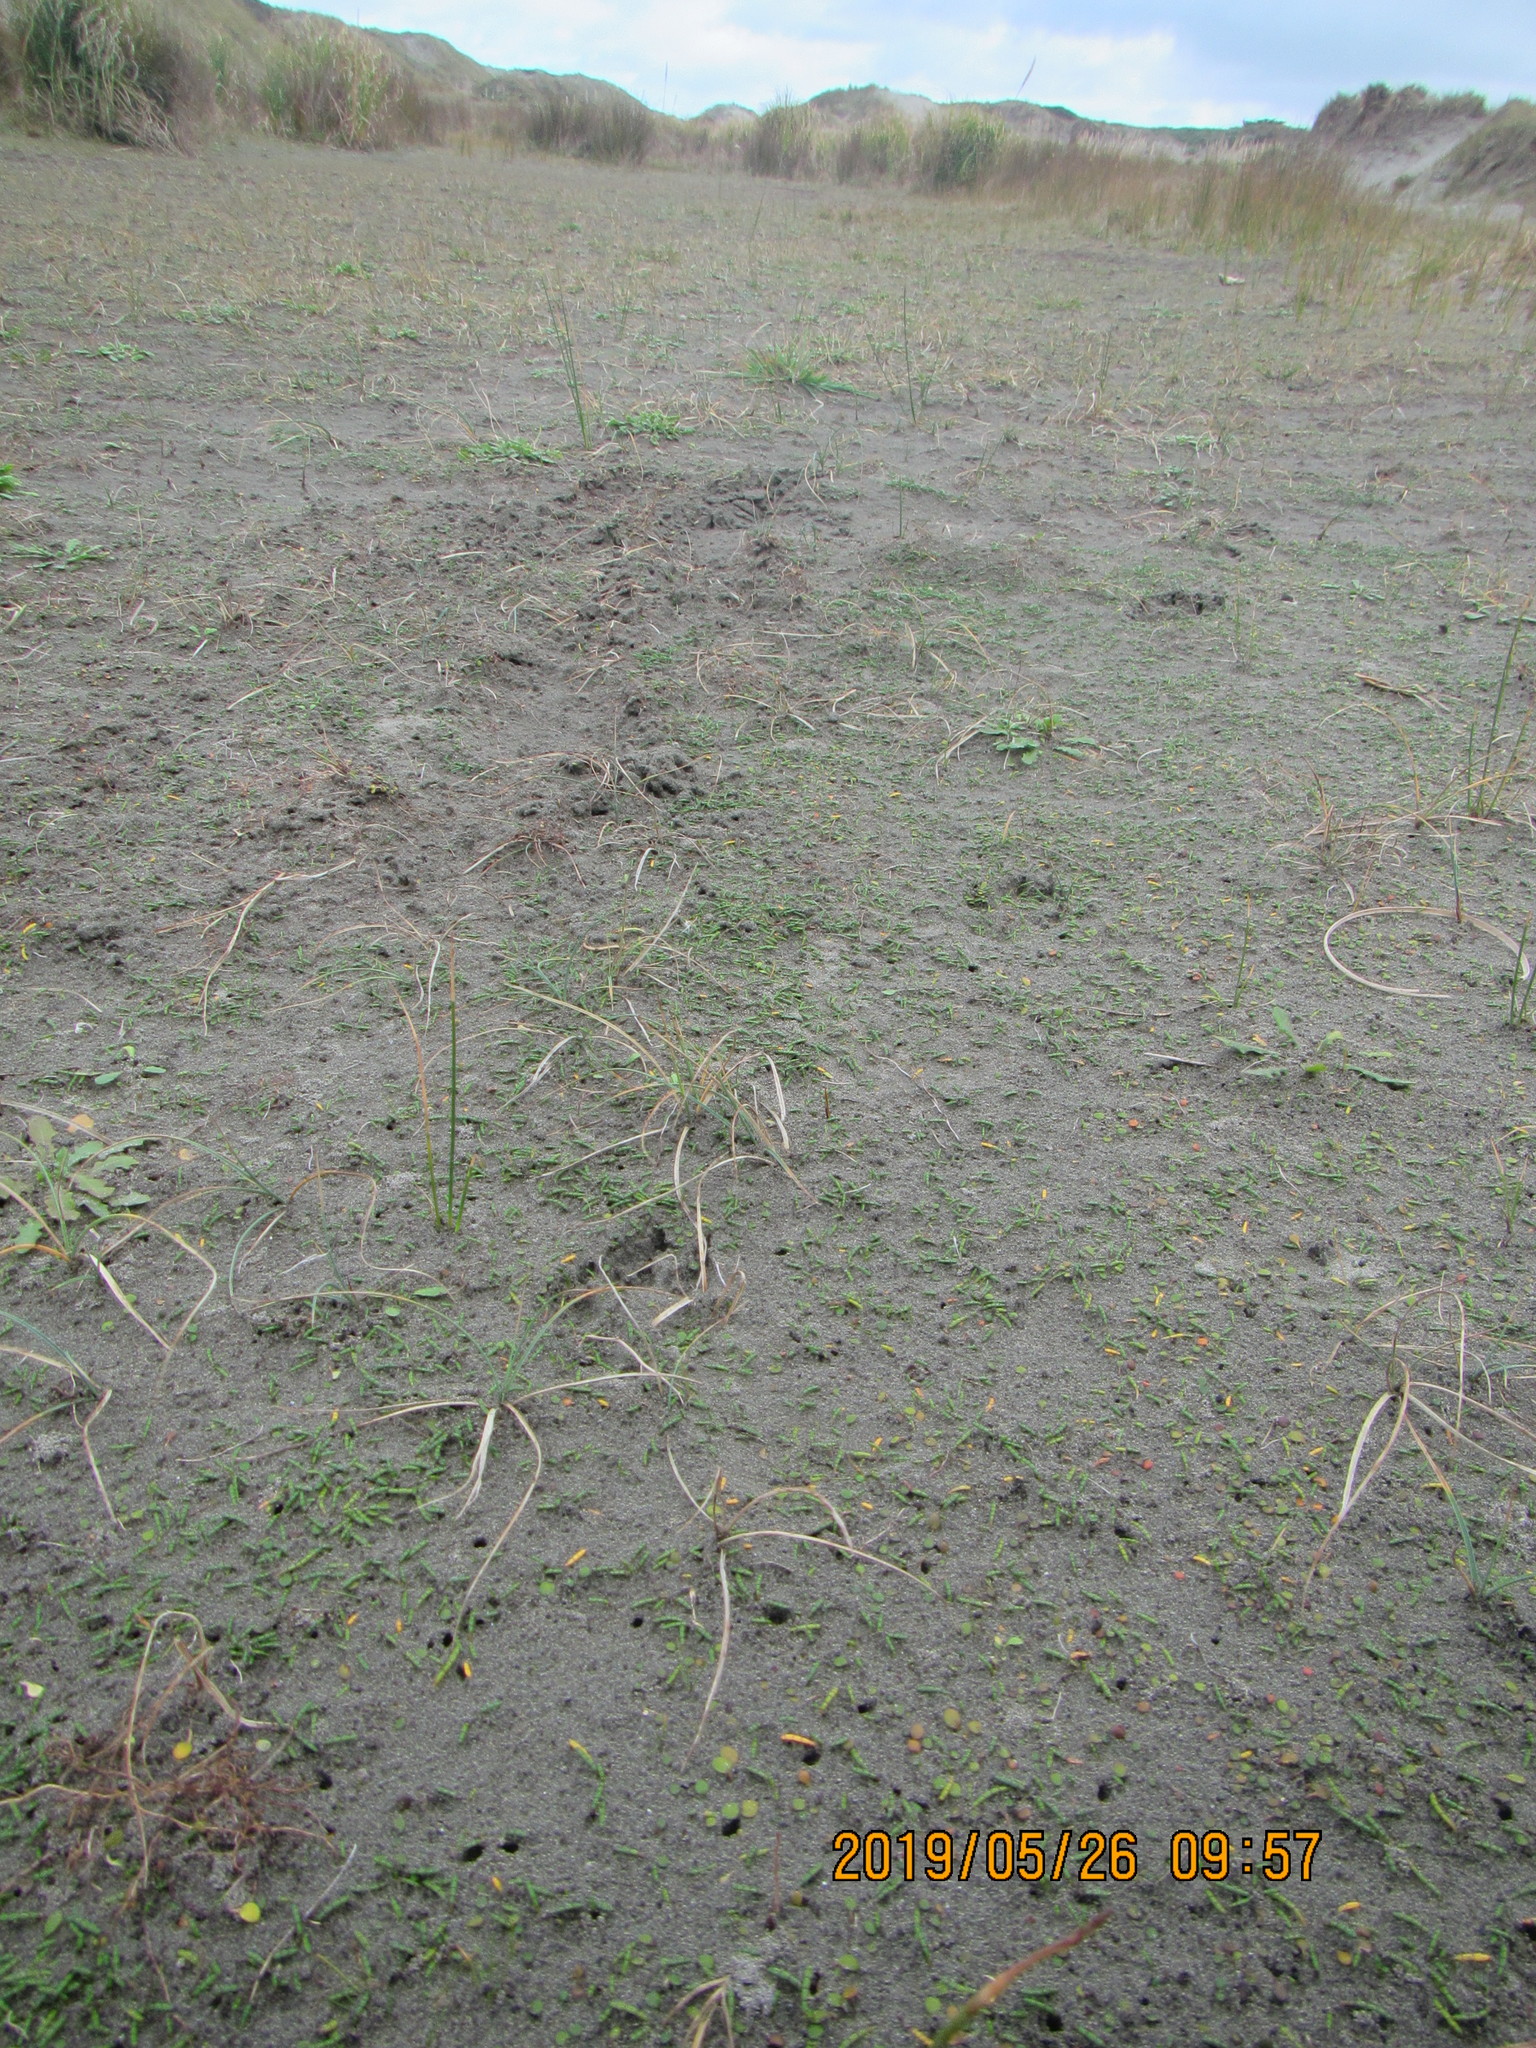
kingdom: Plantae
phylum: Tracheophyta
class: Magnoliopsida
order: Apiales
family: Apiaceae
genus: Lilaeopsis
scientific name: Lilaeopsis novae-zelandiae
